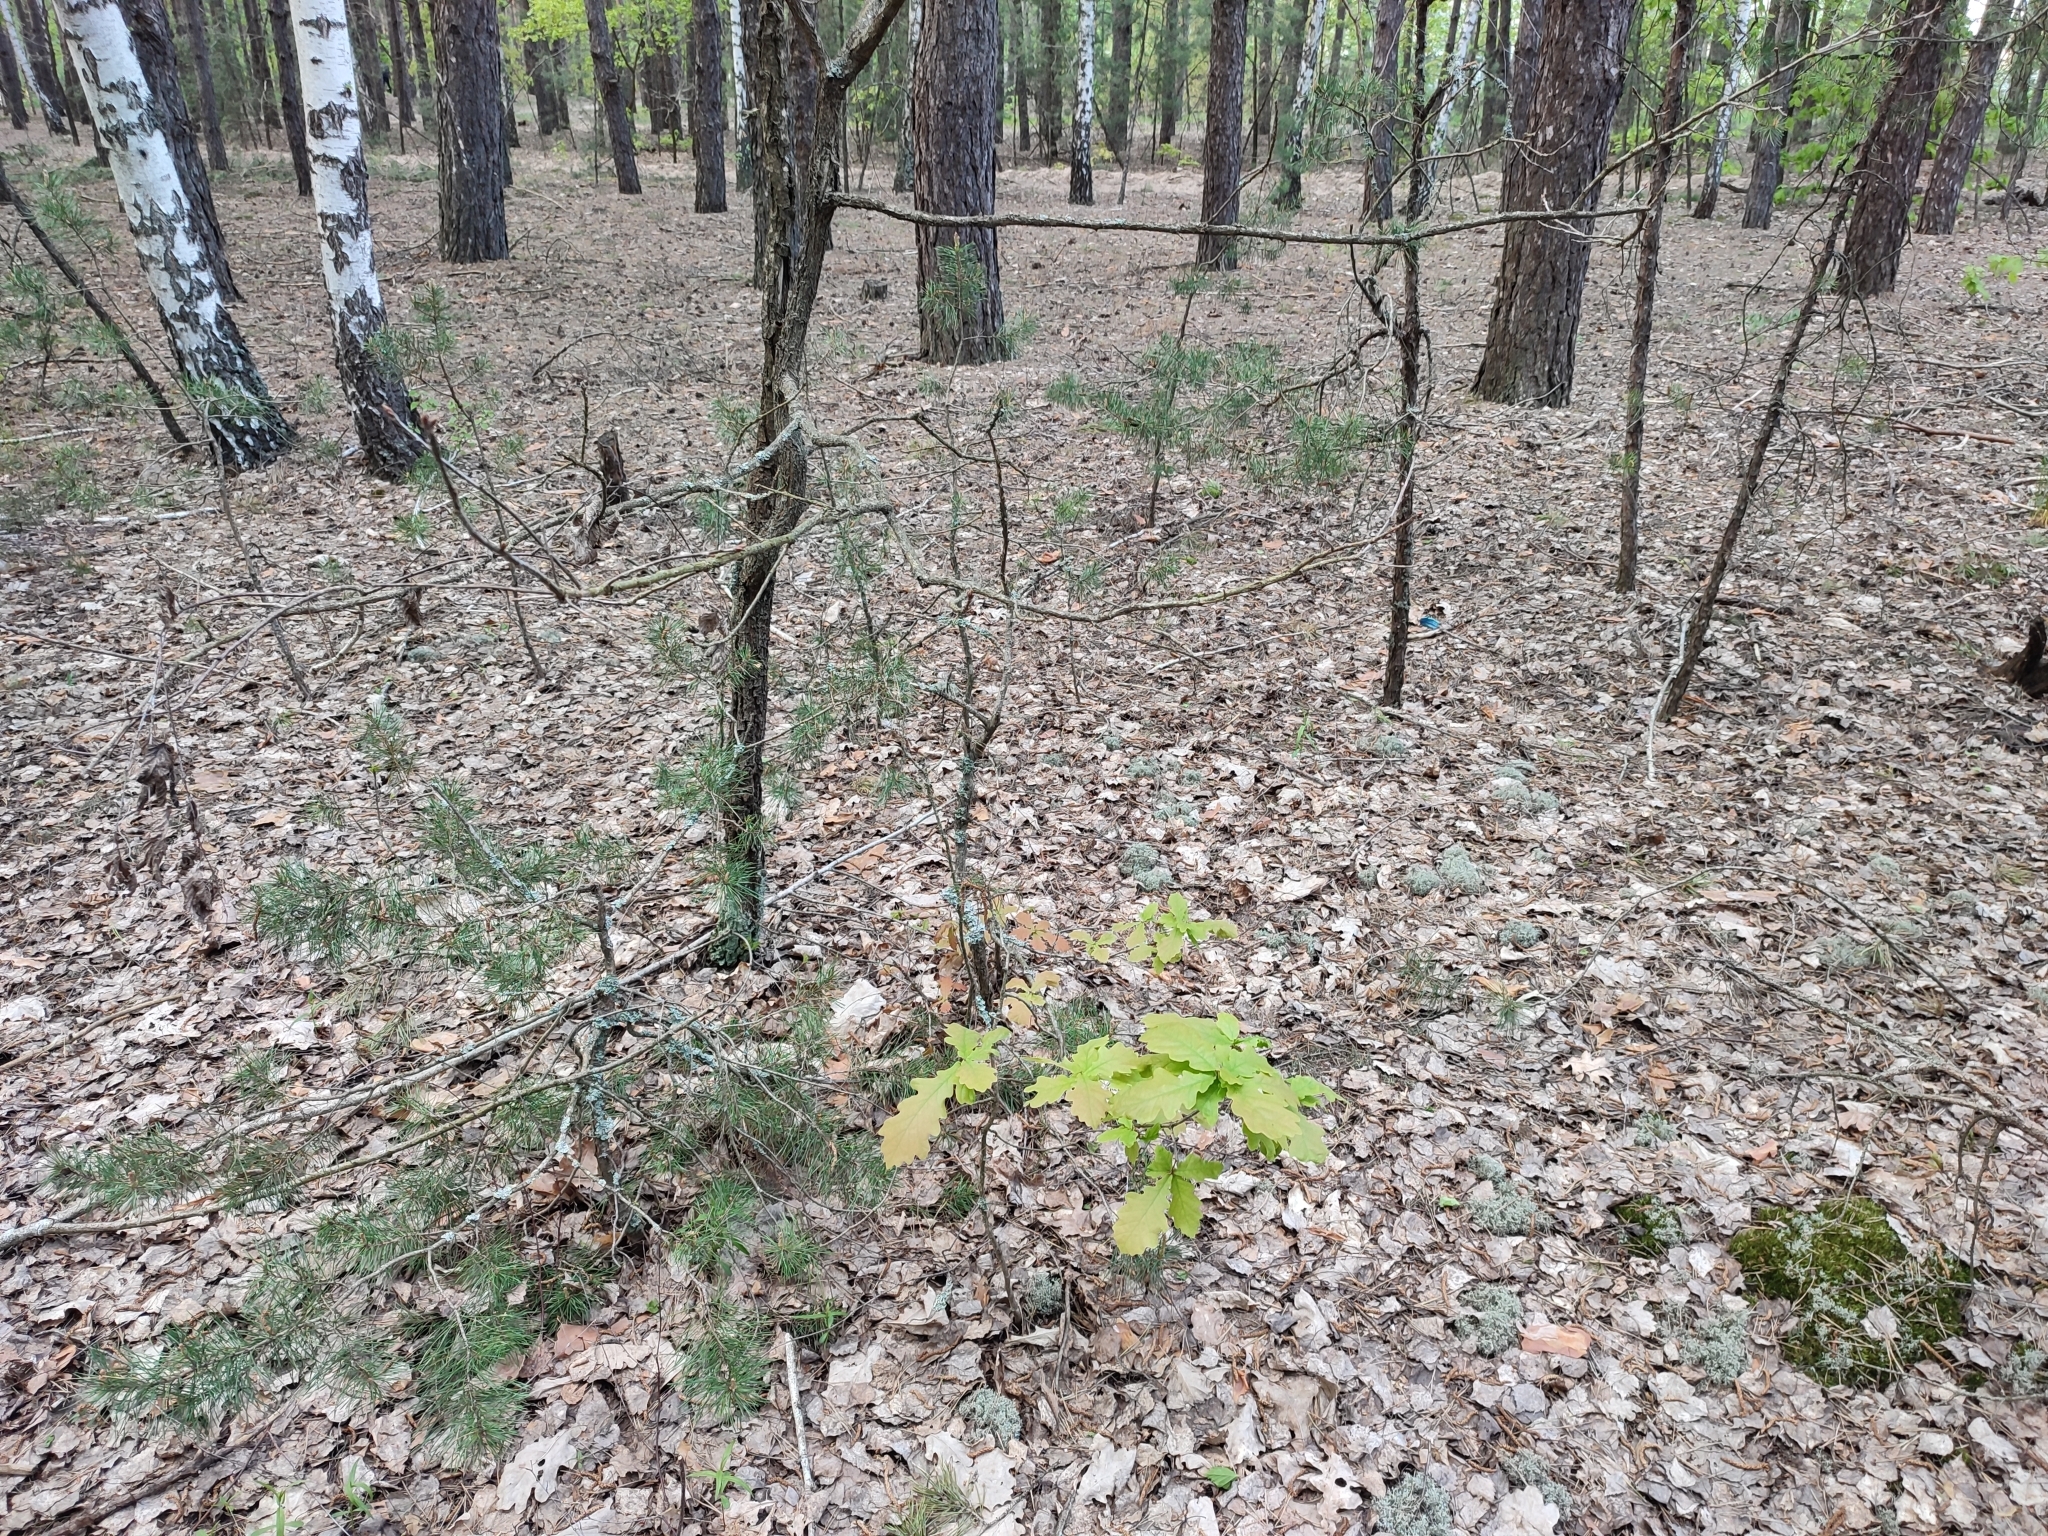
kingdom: Plantae
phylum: Tracheophyta
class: Magnoliopsida
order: Fagales
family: Fagaceae
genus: Quercus
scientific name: Quercus robur
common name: Pedunculate oak
